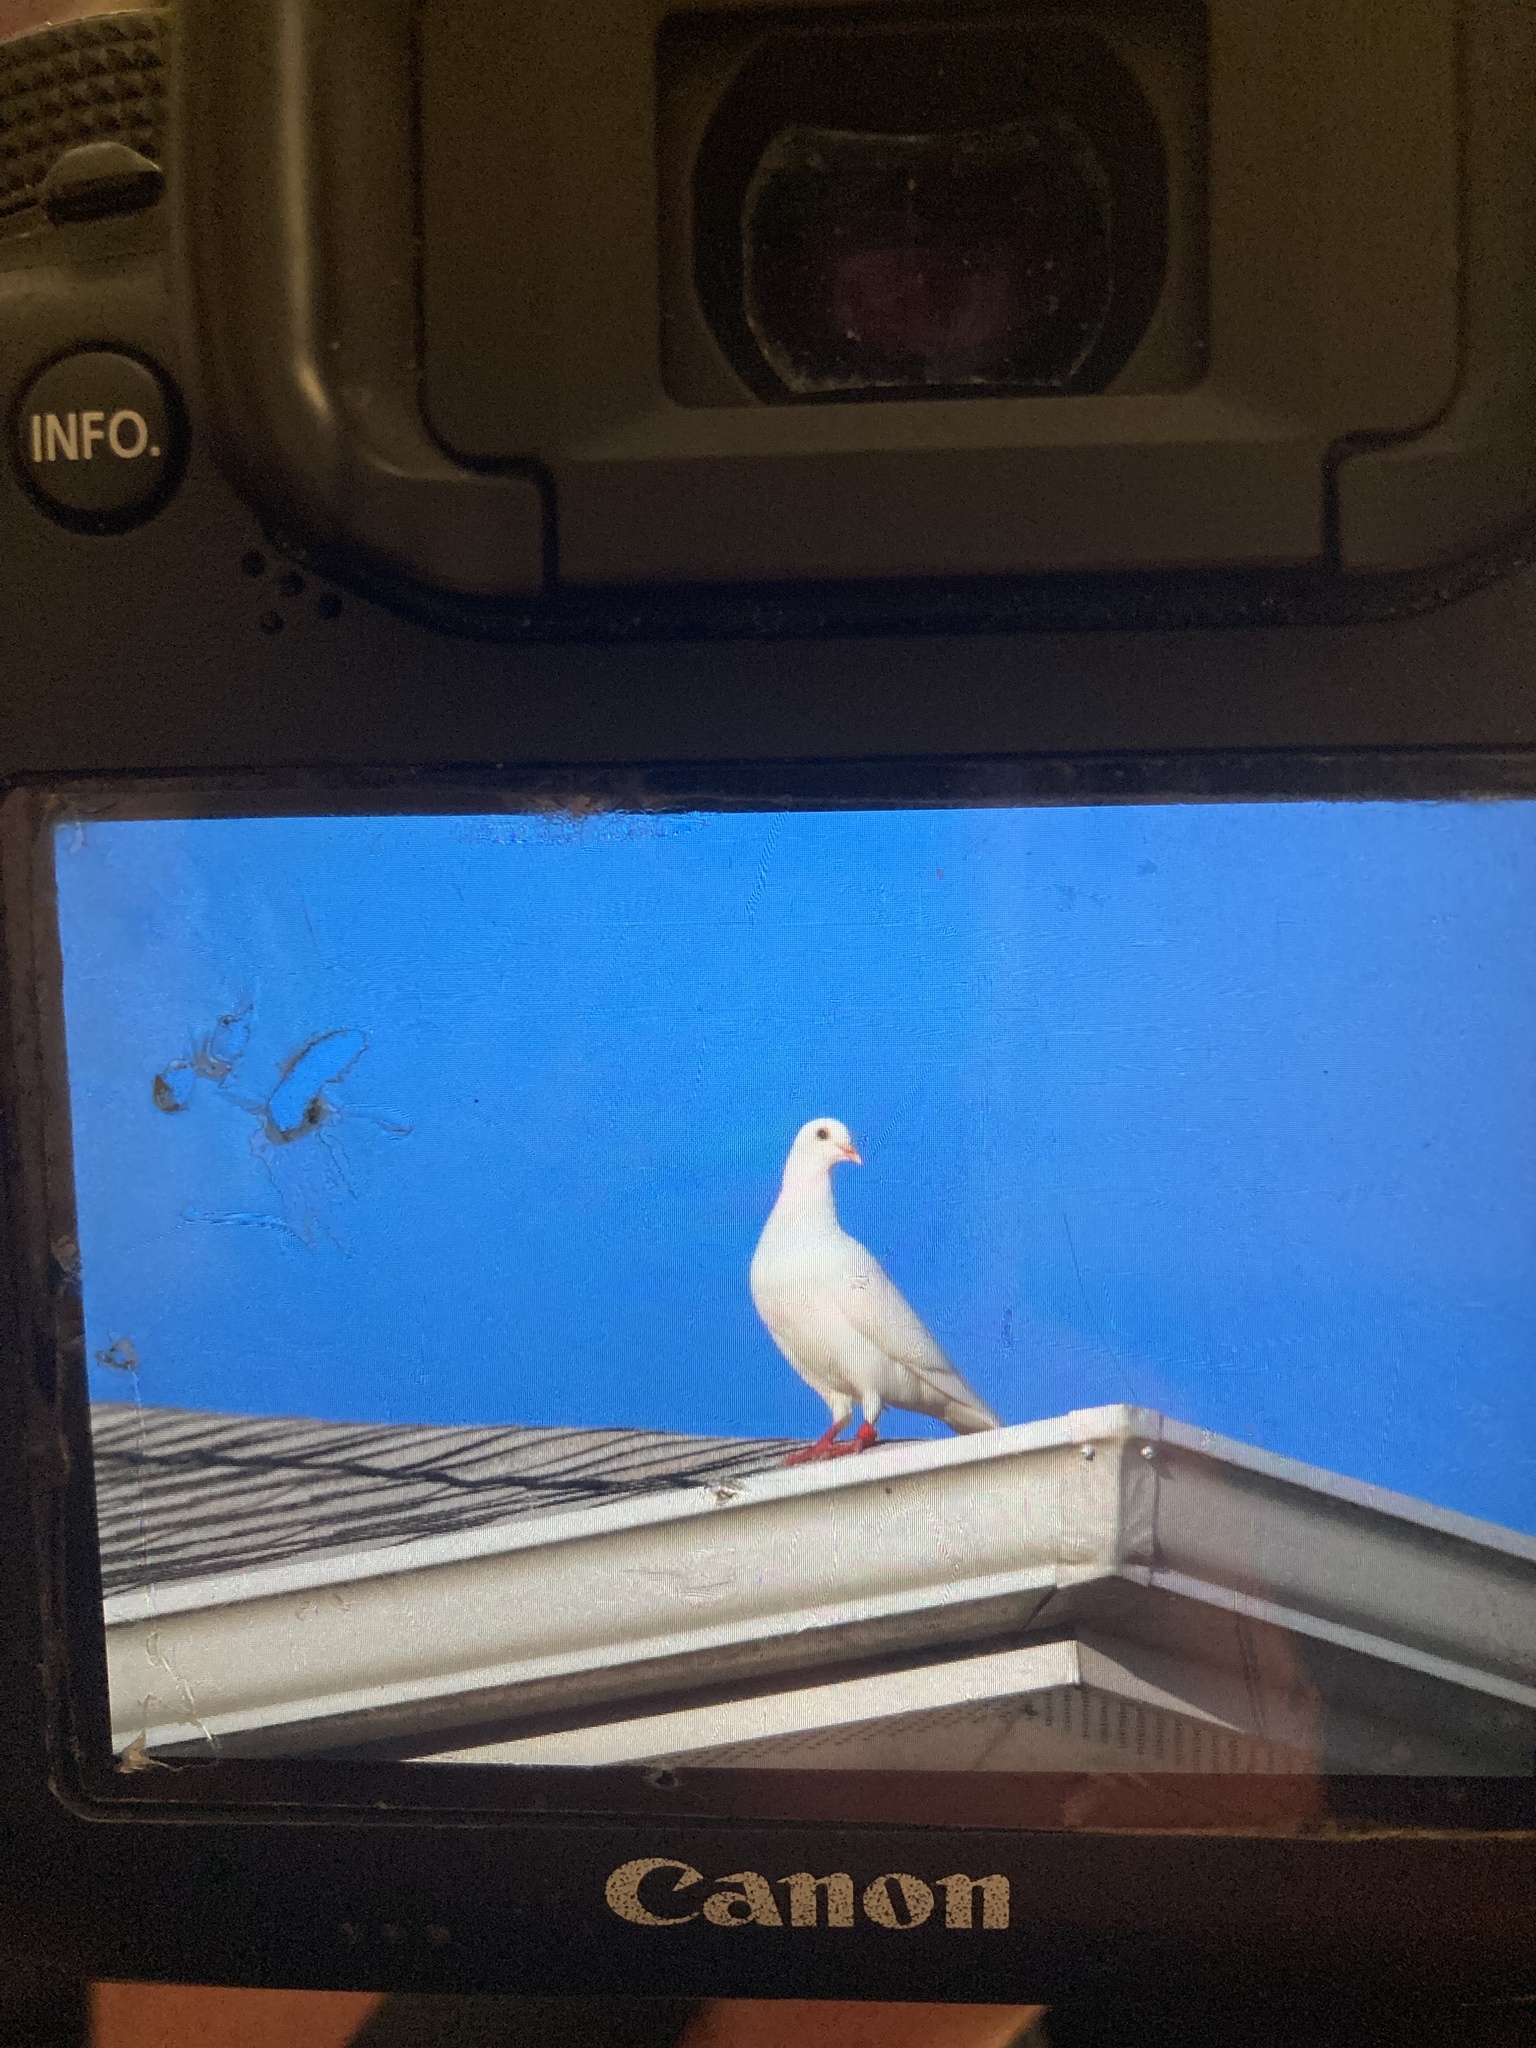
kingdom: Animalia
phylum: Chordata
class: Aves
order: Columbiformes
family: Columbidae
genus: Columba
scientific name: Columba livia
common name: Rock pigeon
